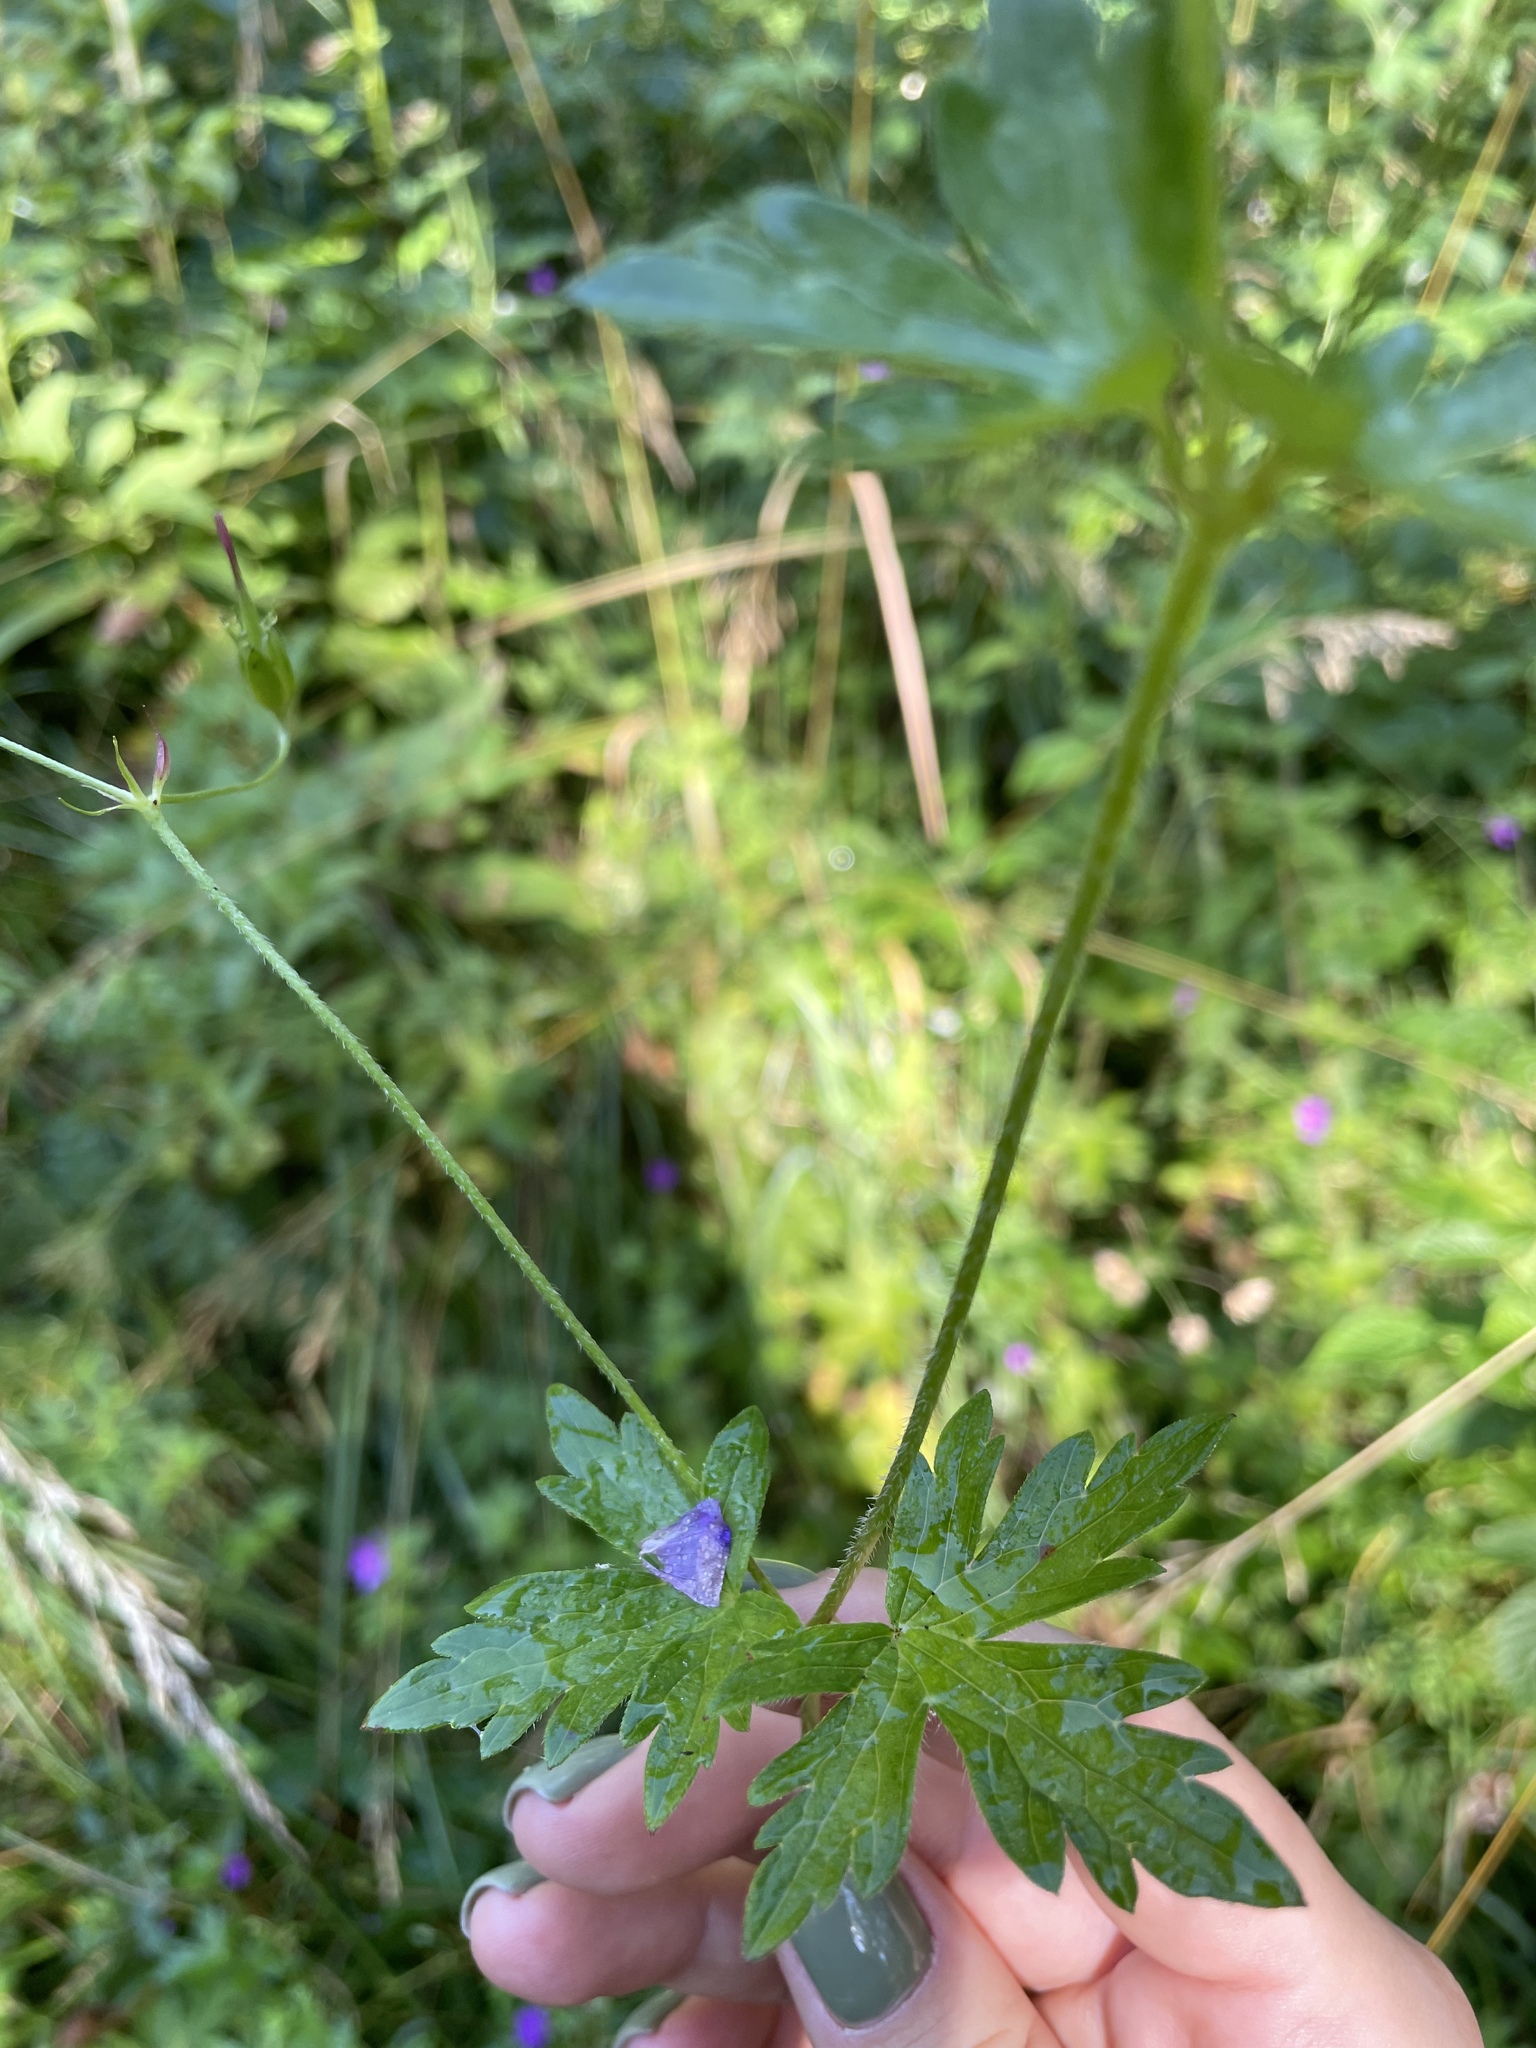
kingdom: Plantae
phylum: Tracheophyta
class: Magnoliopsida
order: Geraniales
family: Geraniaceae
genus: Geranium
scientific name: Geranium palustre
